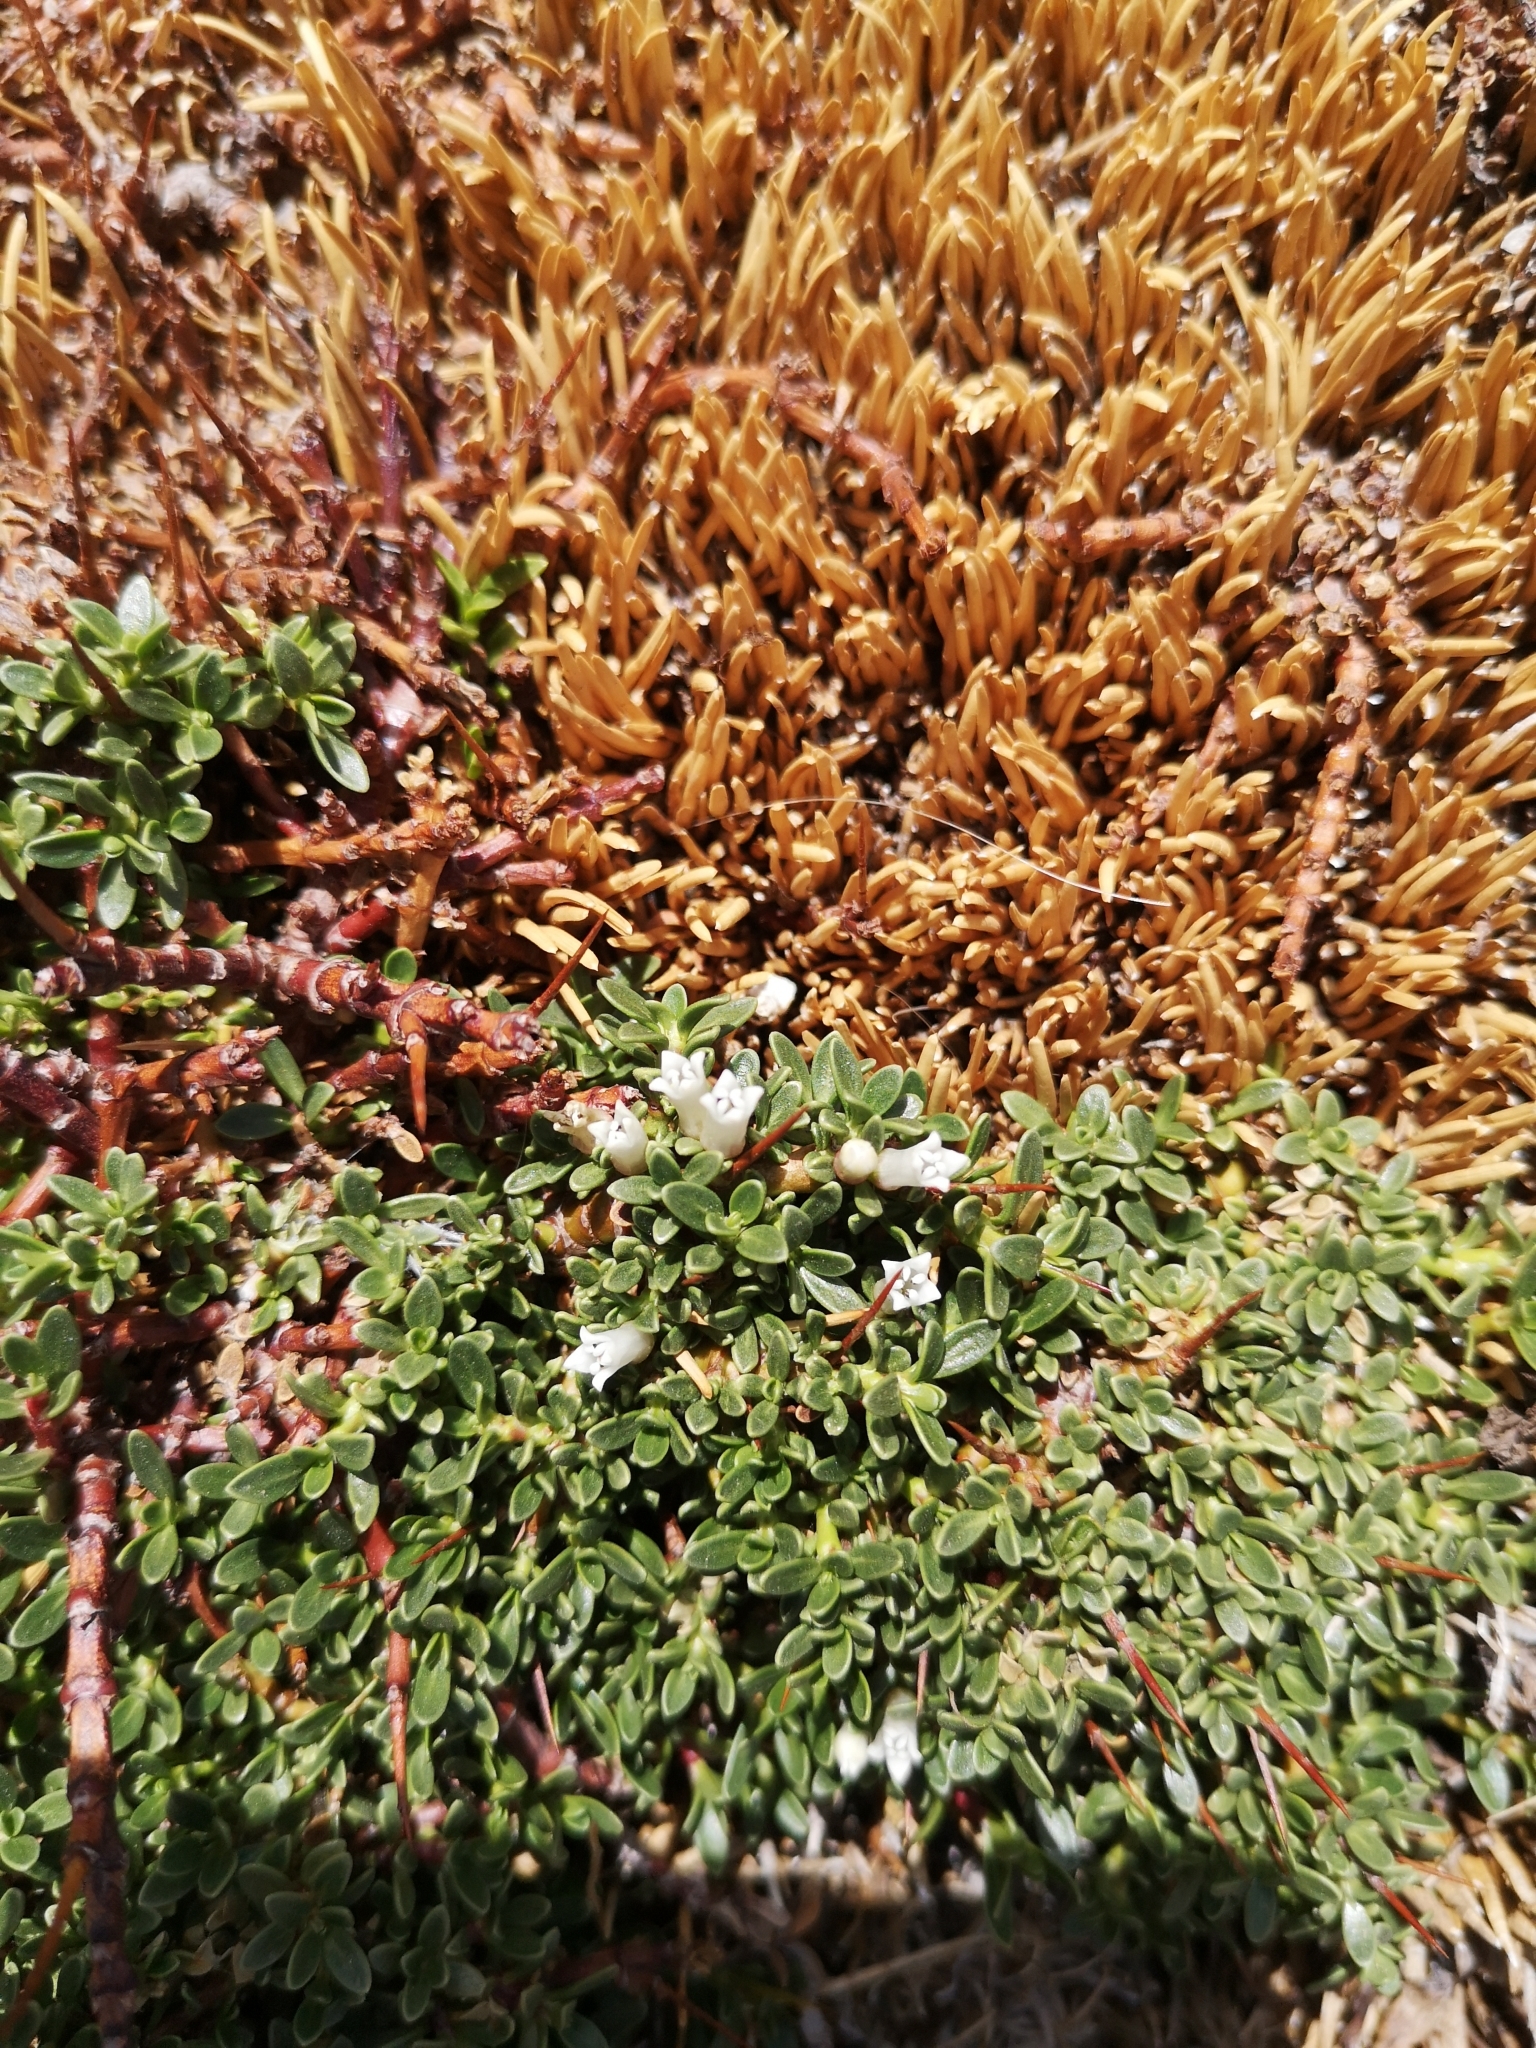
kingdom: Plantae
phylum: Tracheophyta
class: Magnoliopsida
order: Rosales
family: Rhamnaceae
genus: Discaria
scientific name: Discaria nana
